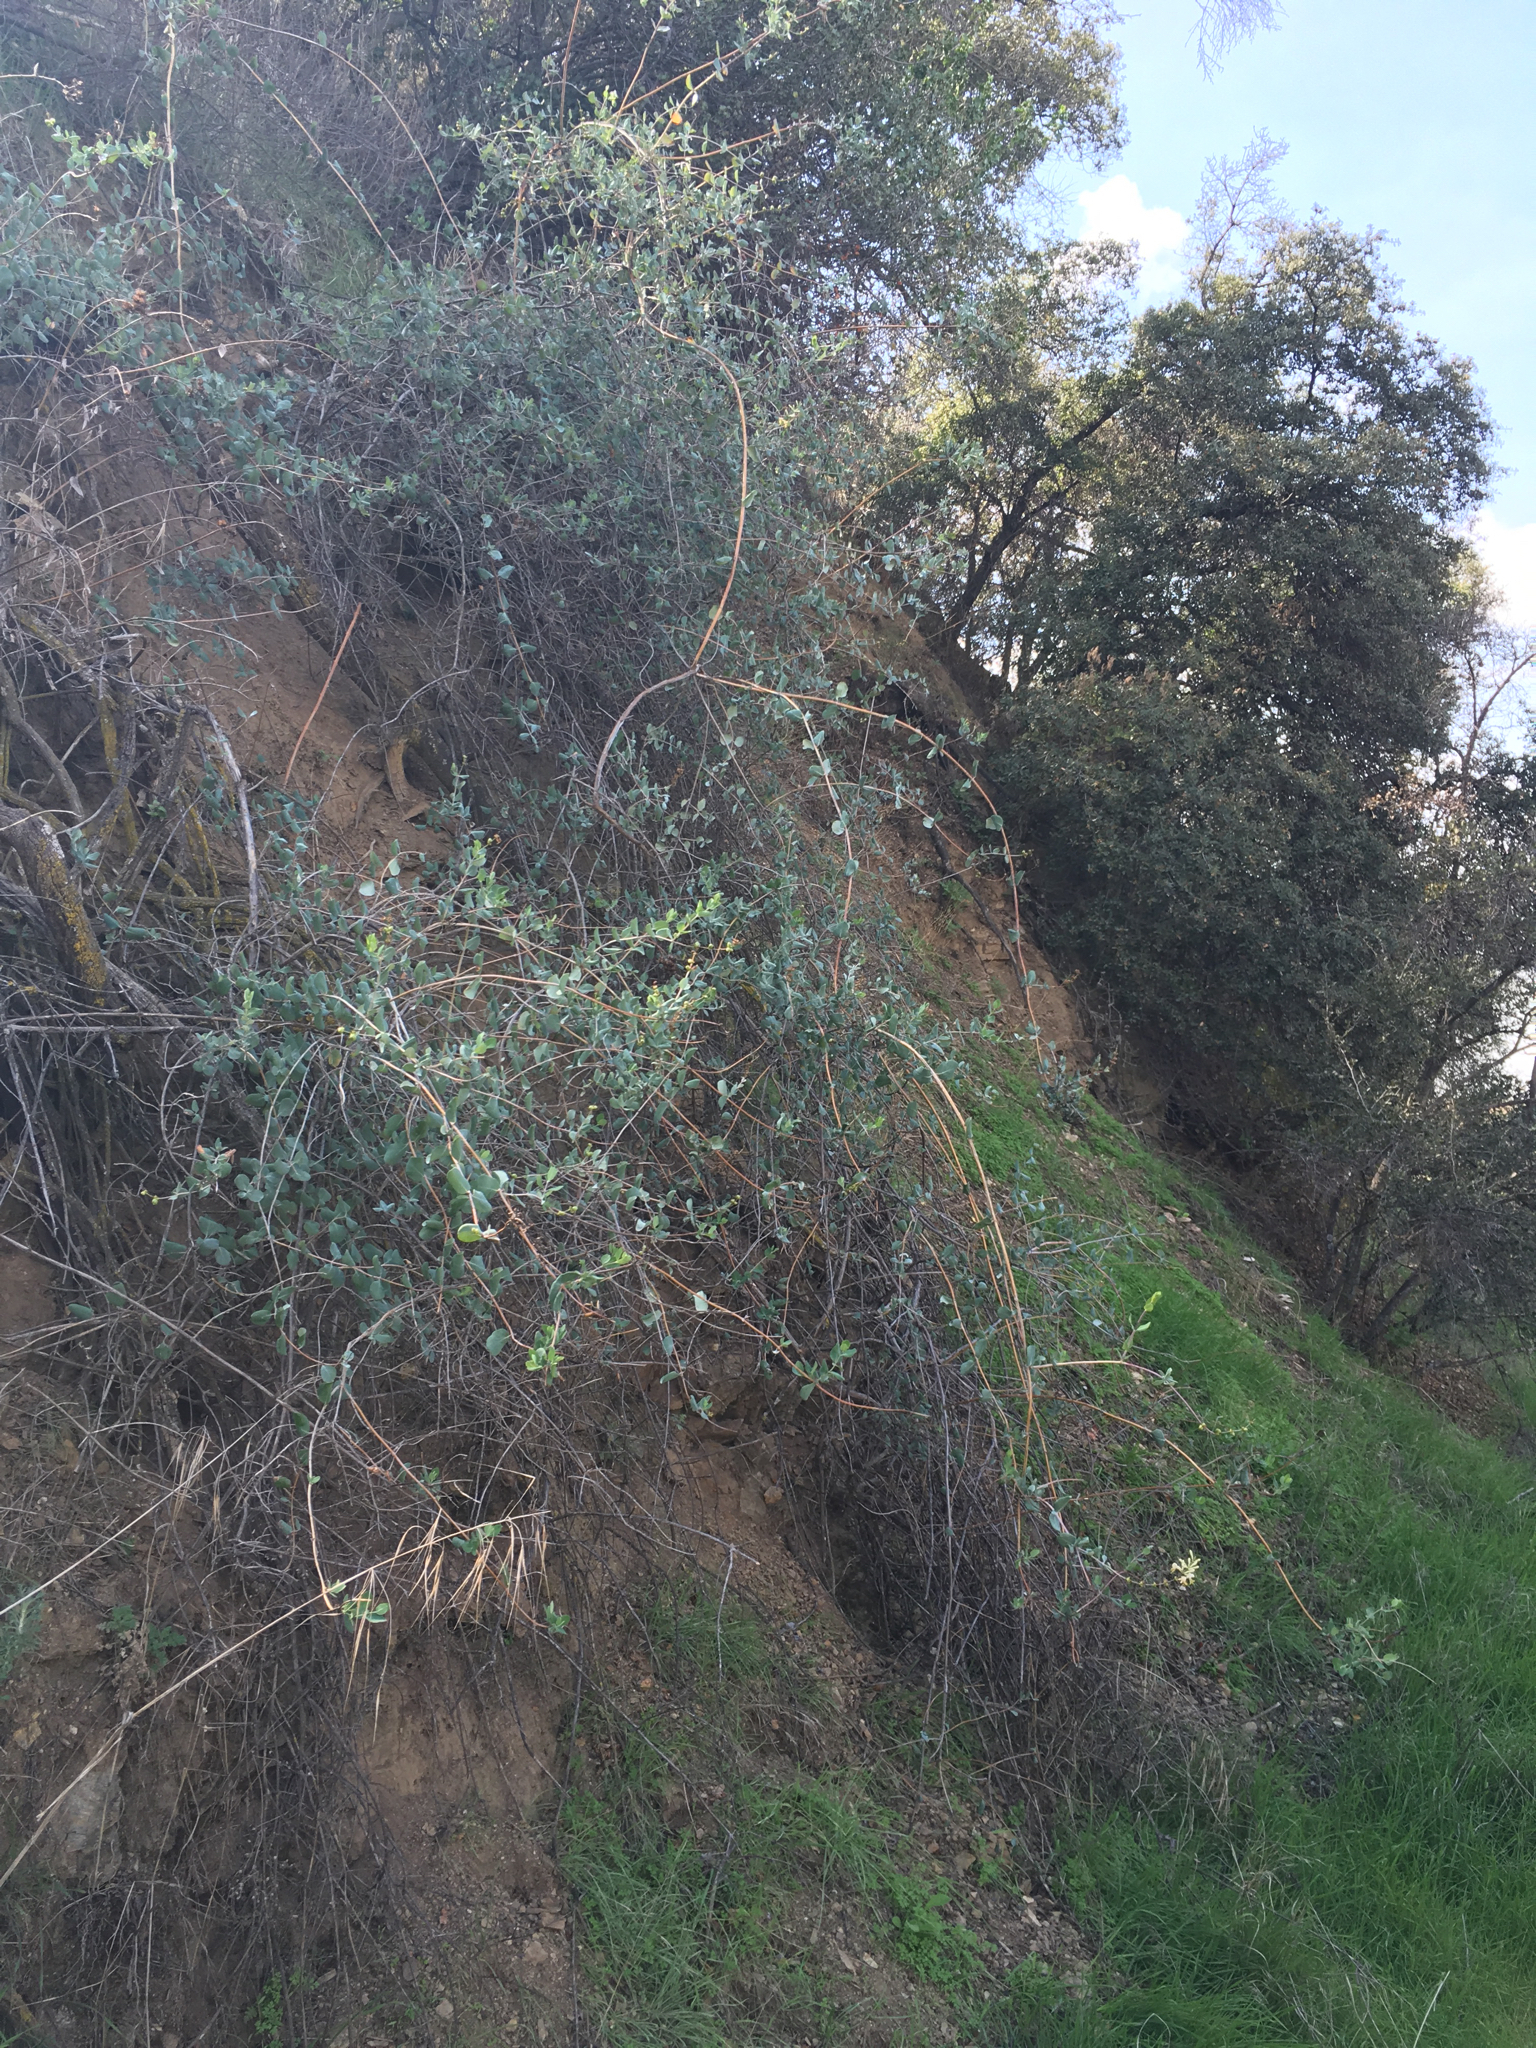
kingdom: Plantae
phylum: Tracheophyta
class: Magnoliopsida
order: Dipsacales
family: Caprifoliaceae
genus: Lonicera
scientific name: Lonicera subspicata
